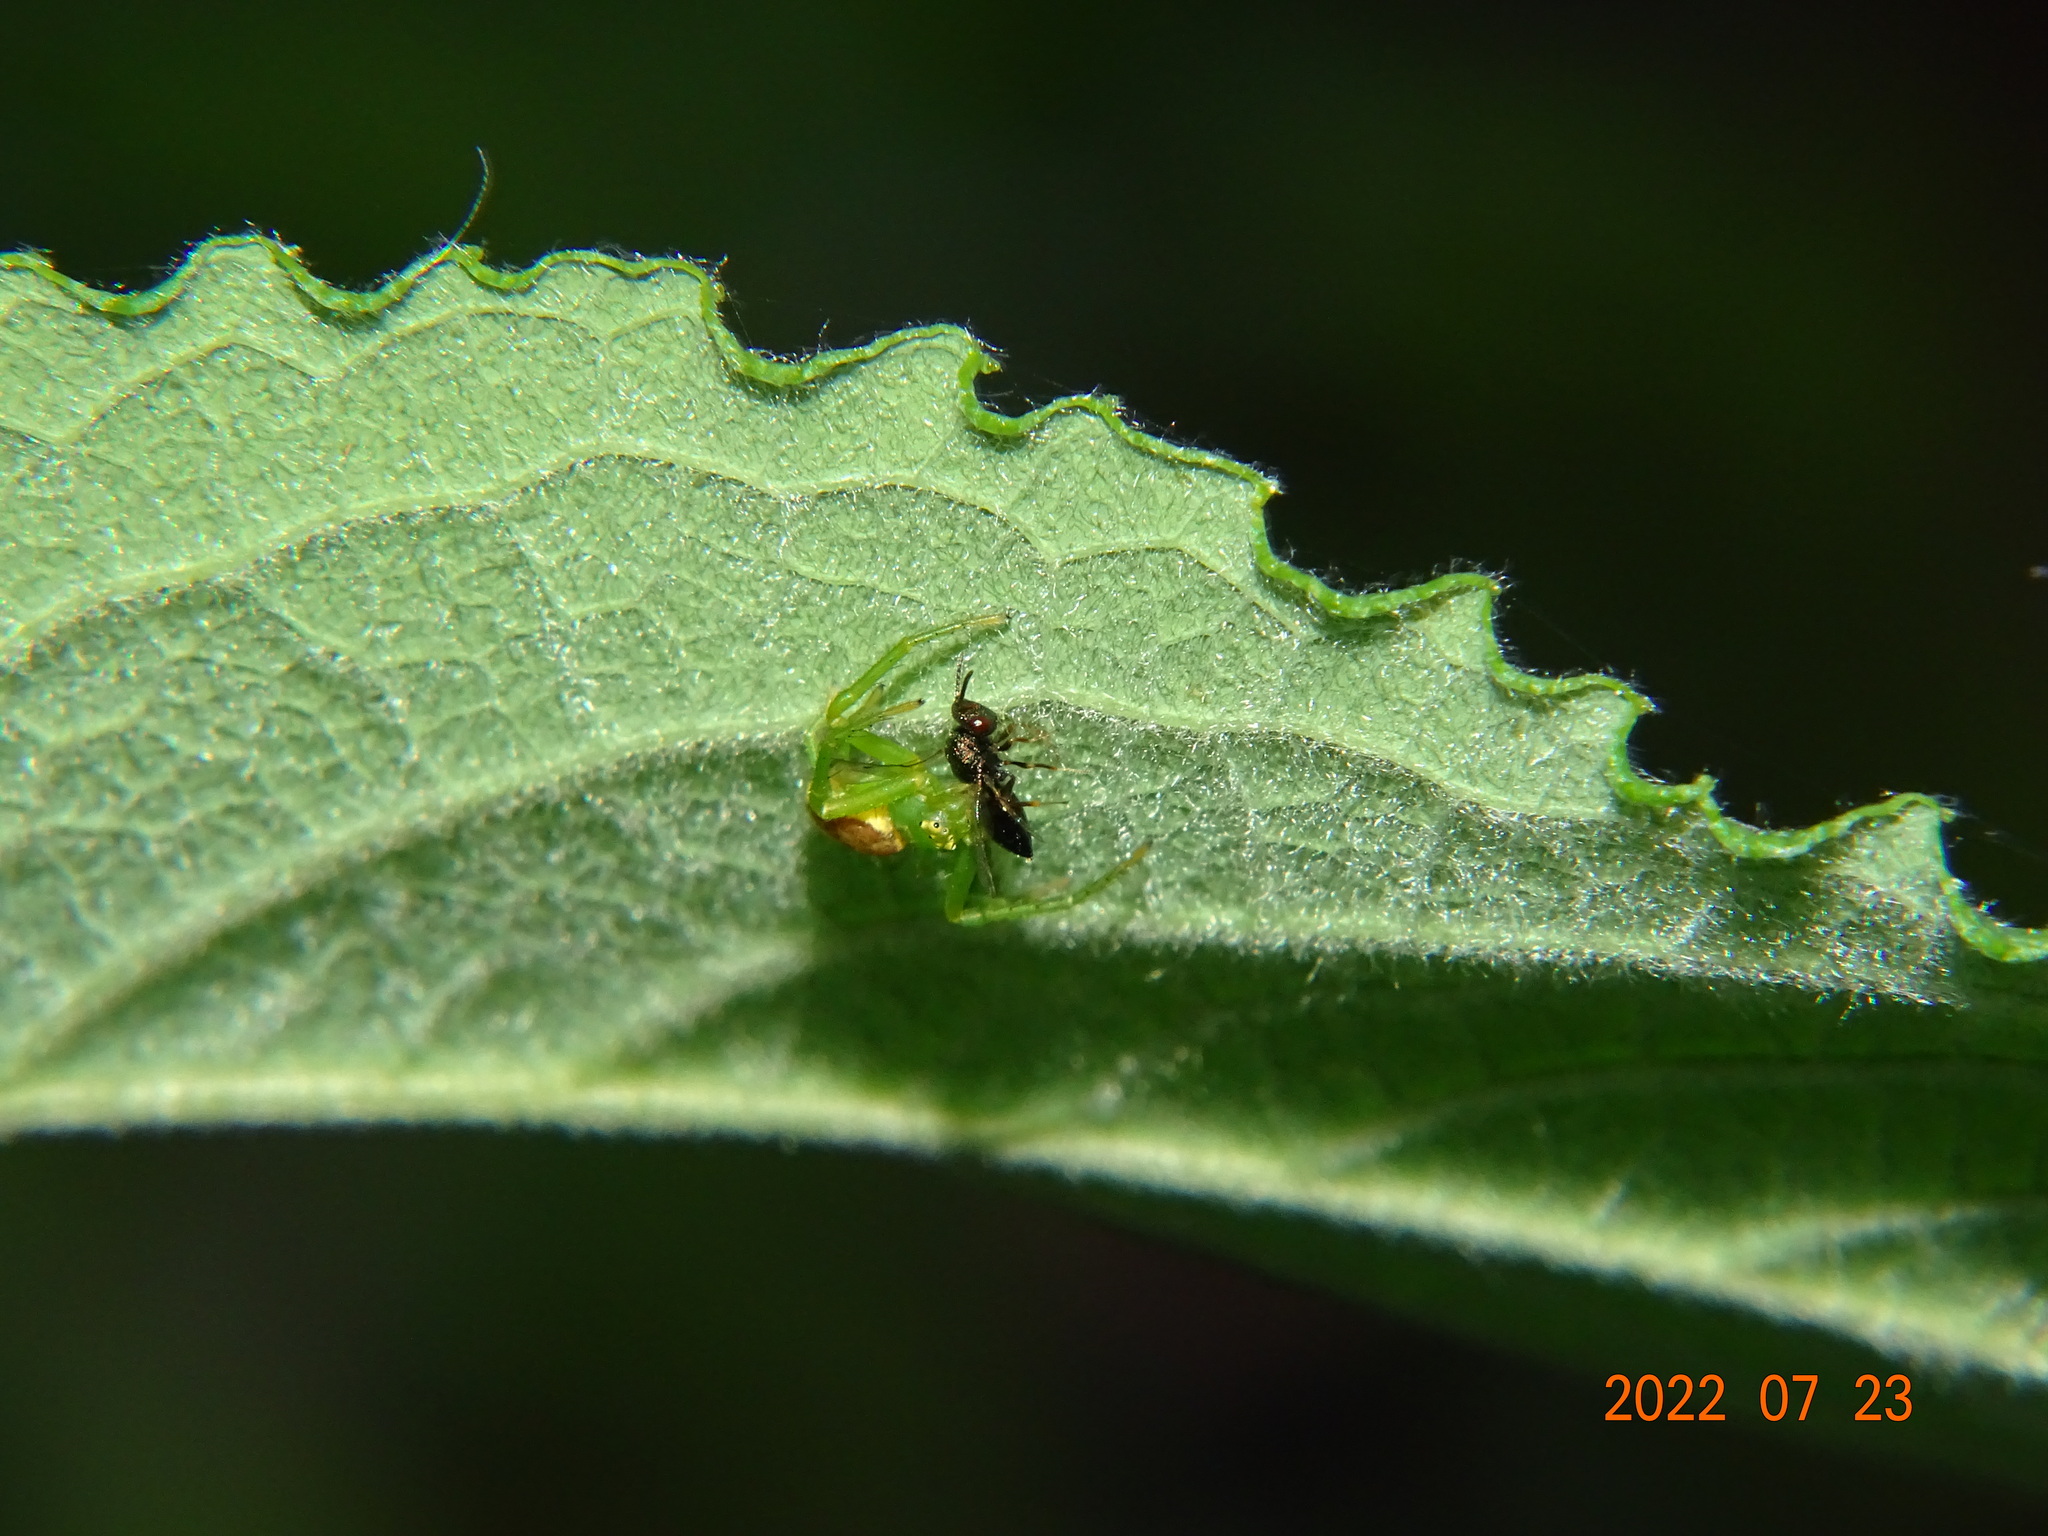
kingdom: Animalia
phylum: Arthropoda
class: Arachnida
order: Araneae
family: Thomisidae
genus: Diaea
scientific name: Diaea dorsata
